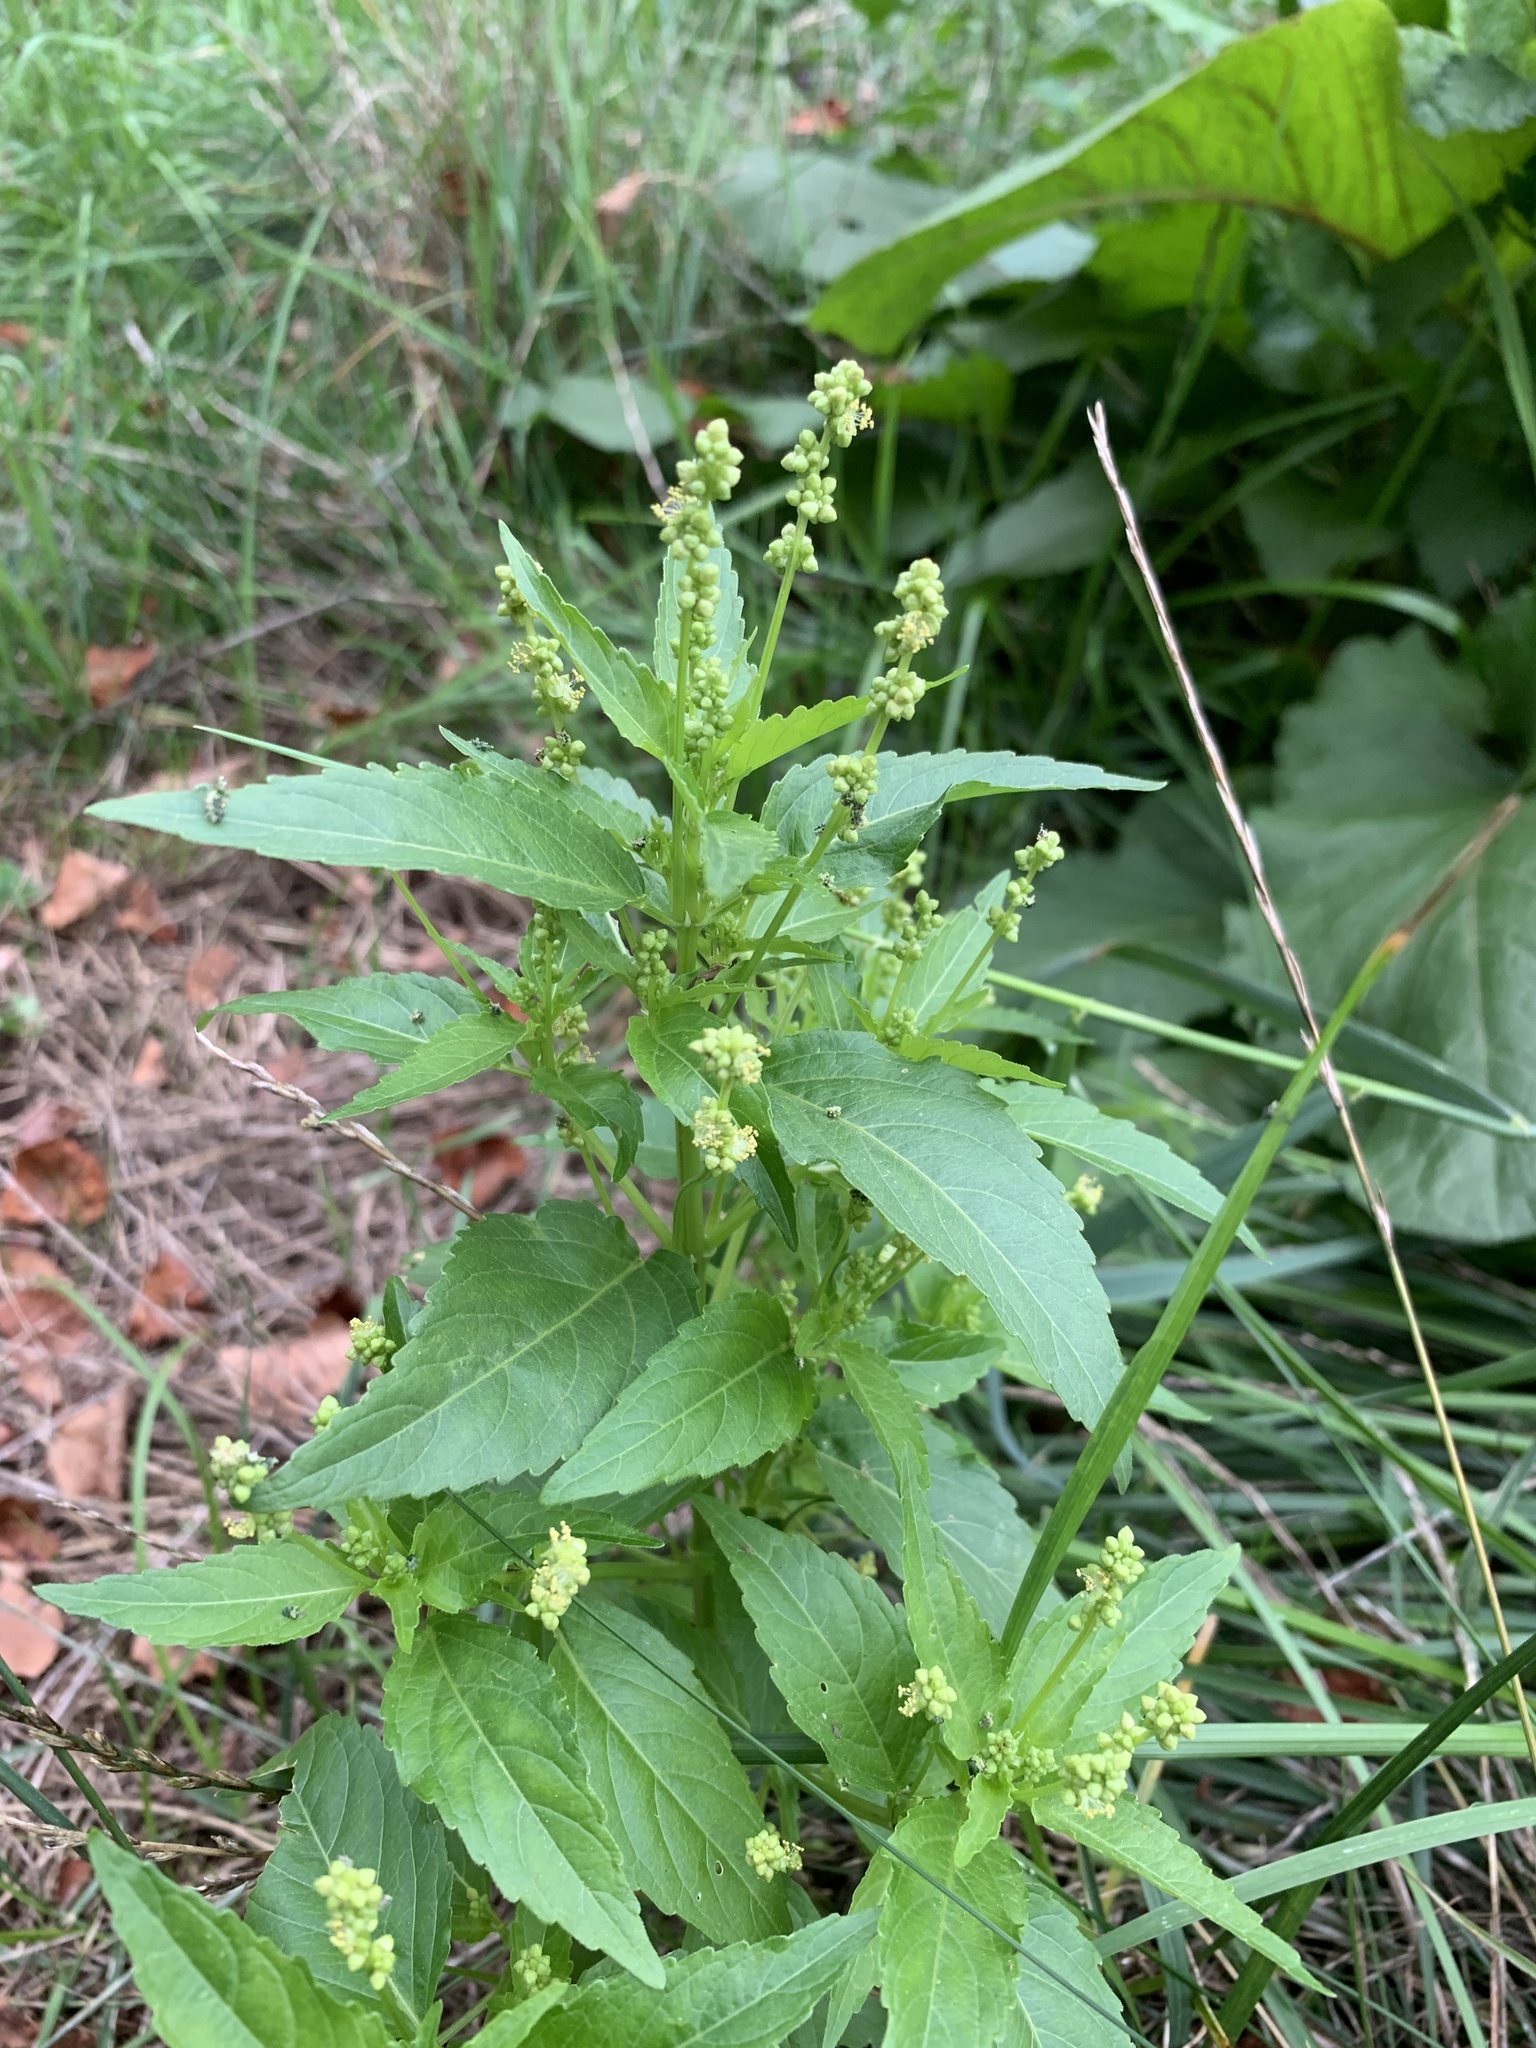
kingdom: Plantae
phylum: Tracheophyta
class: Magnoliopsida
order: Malpighiales
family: Euphorbiaceae
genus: Mercurialis
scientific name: Mercurialis annua
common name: Annual mercury
